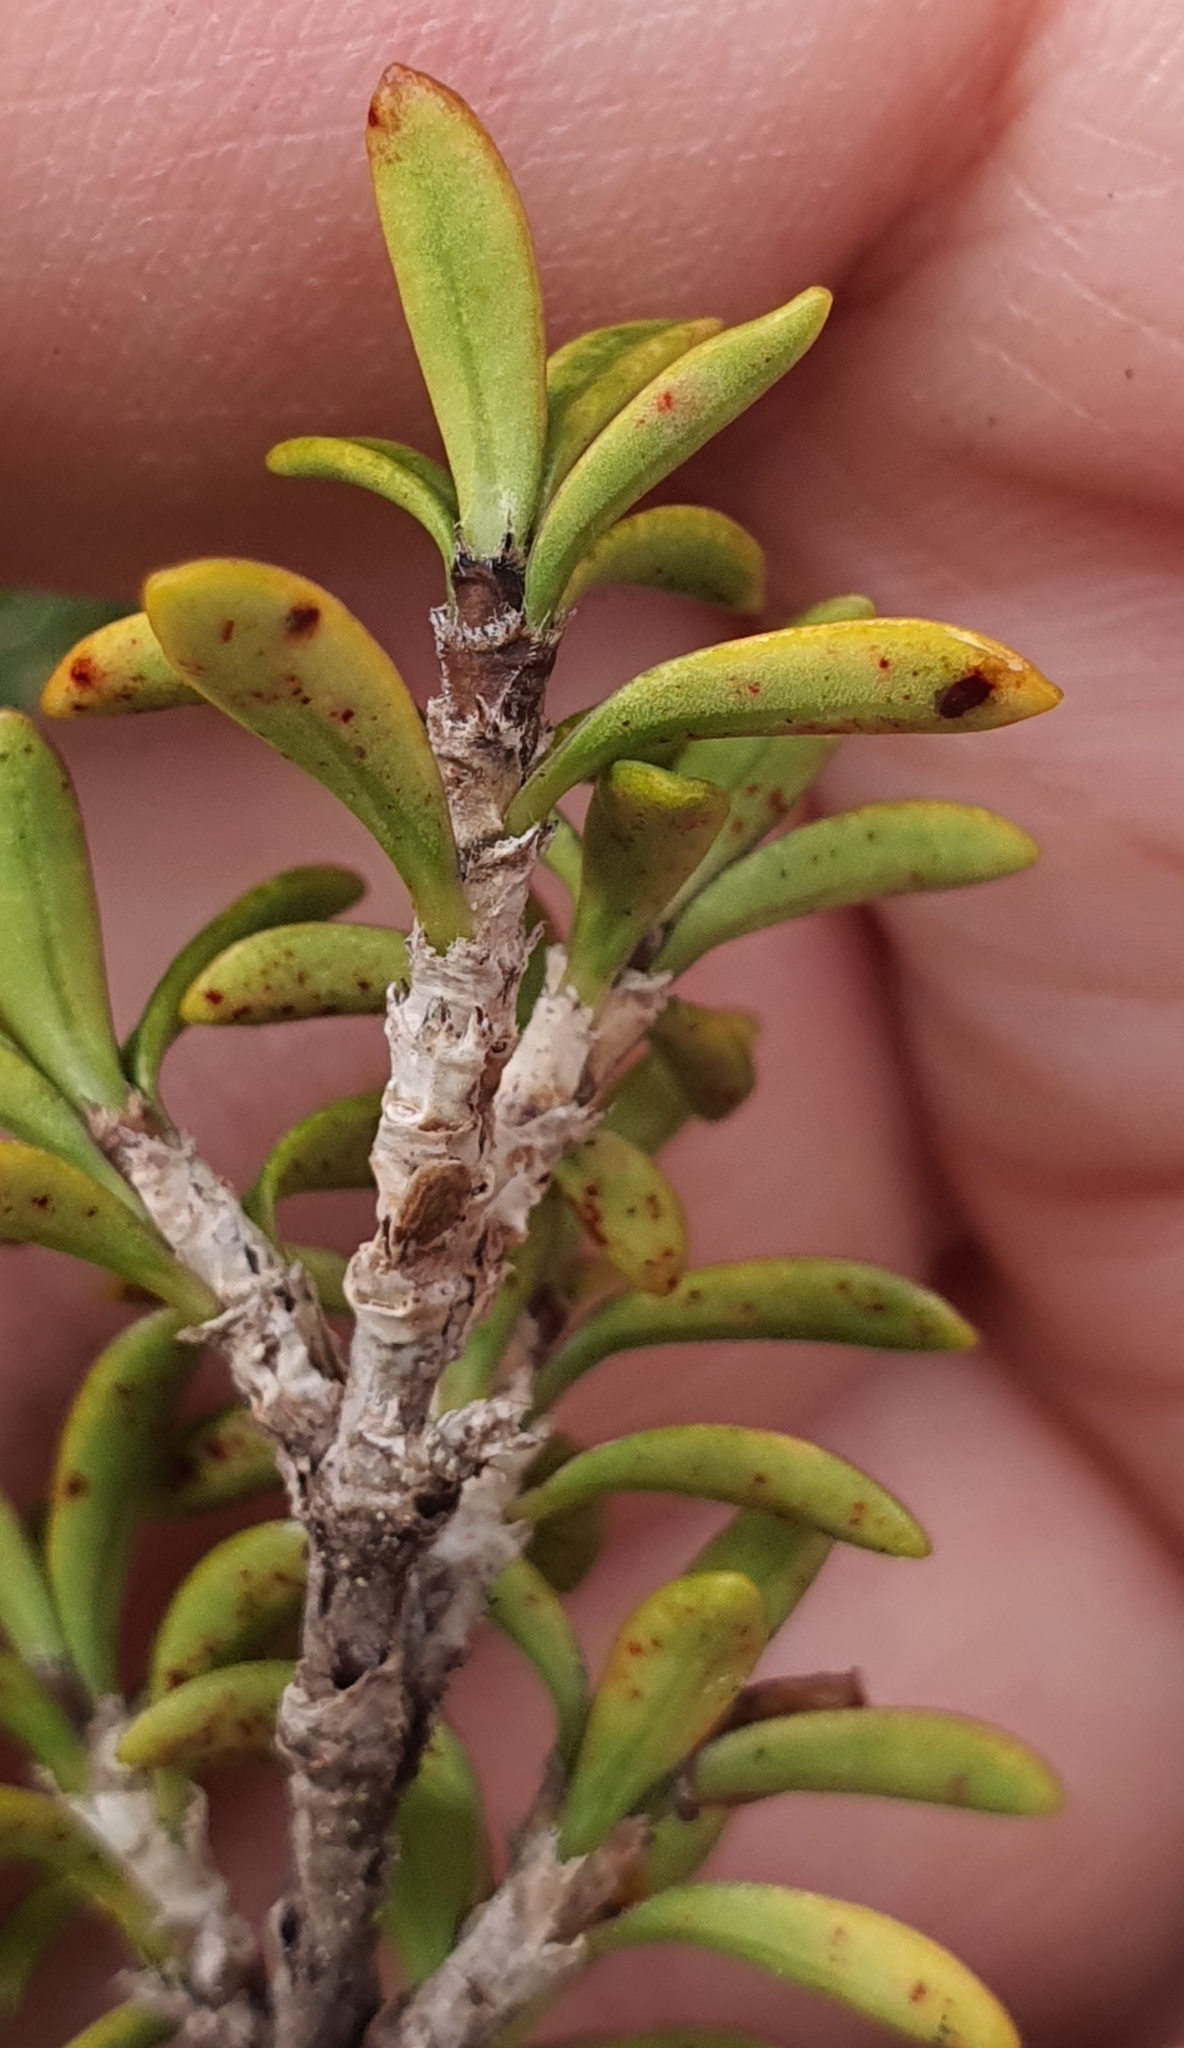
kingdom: Plantae
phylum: Tracheophyta
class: Magnoliopsida
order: Gentianales
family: Rubiaceae
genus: Coprosma
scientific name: Coprosma pseudocuneata
